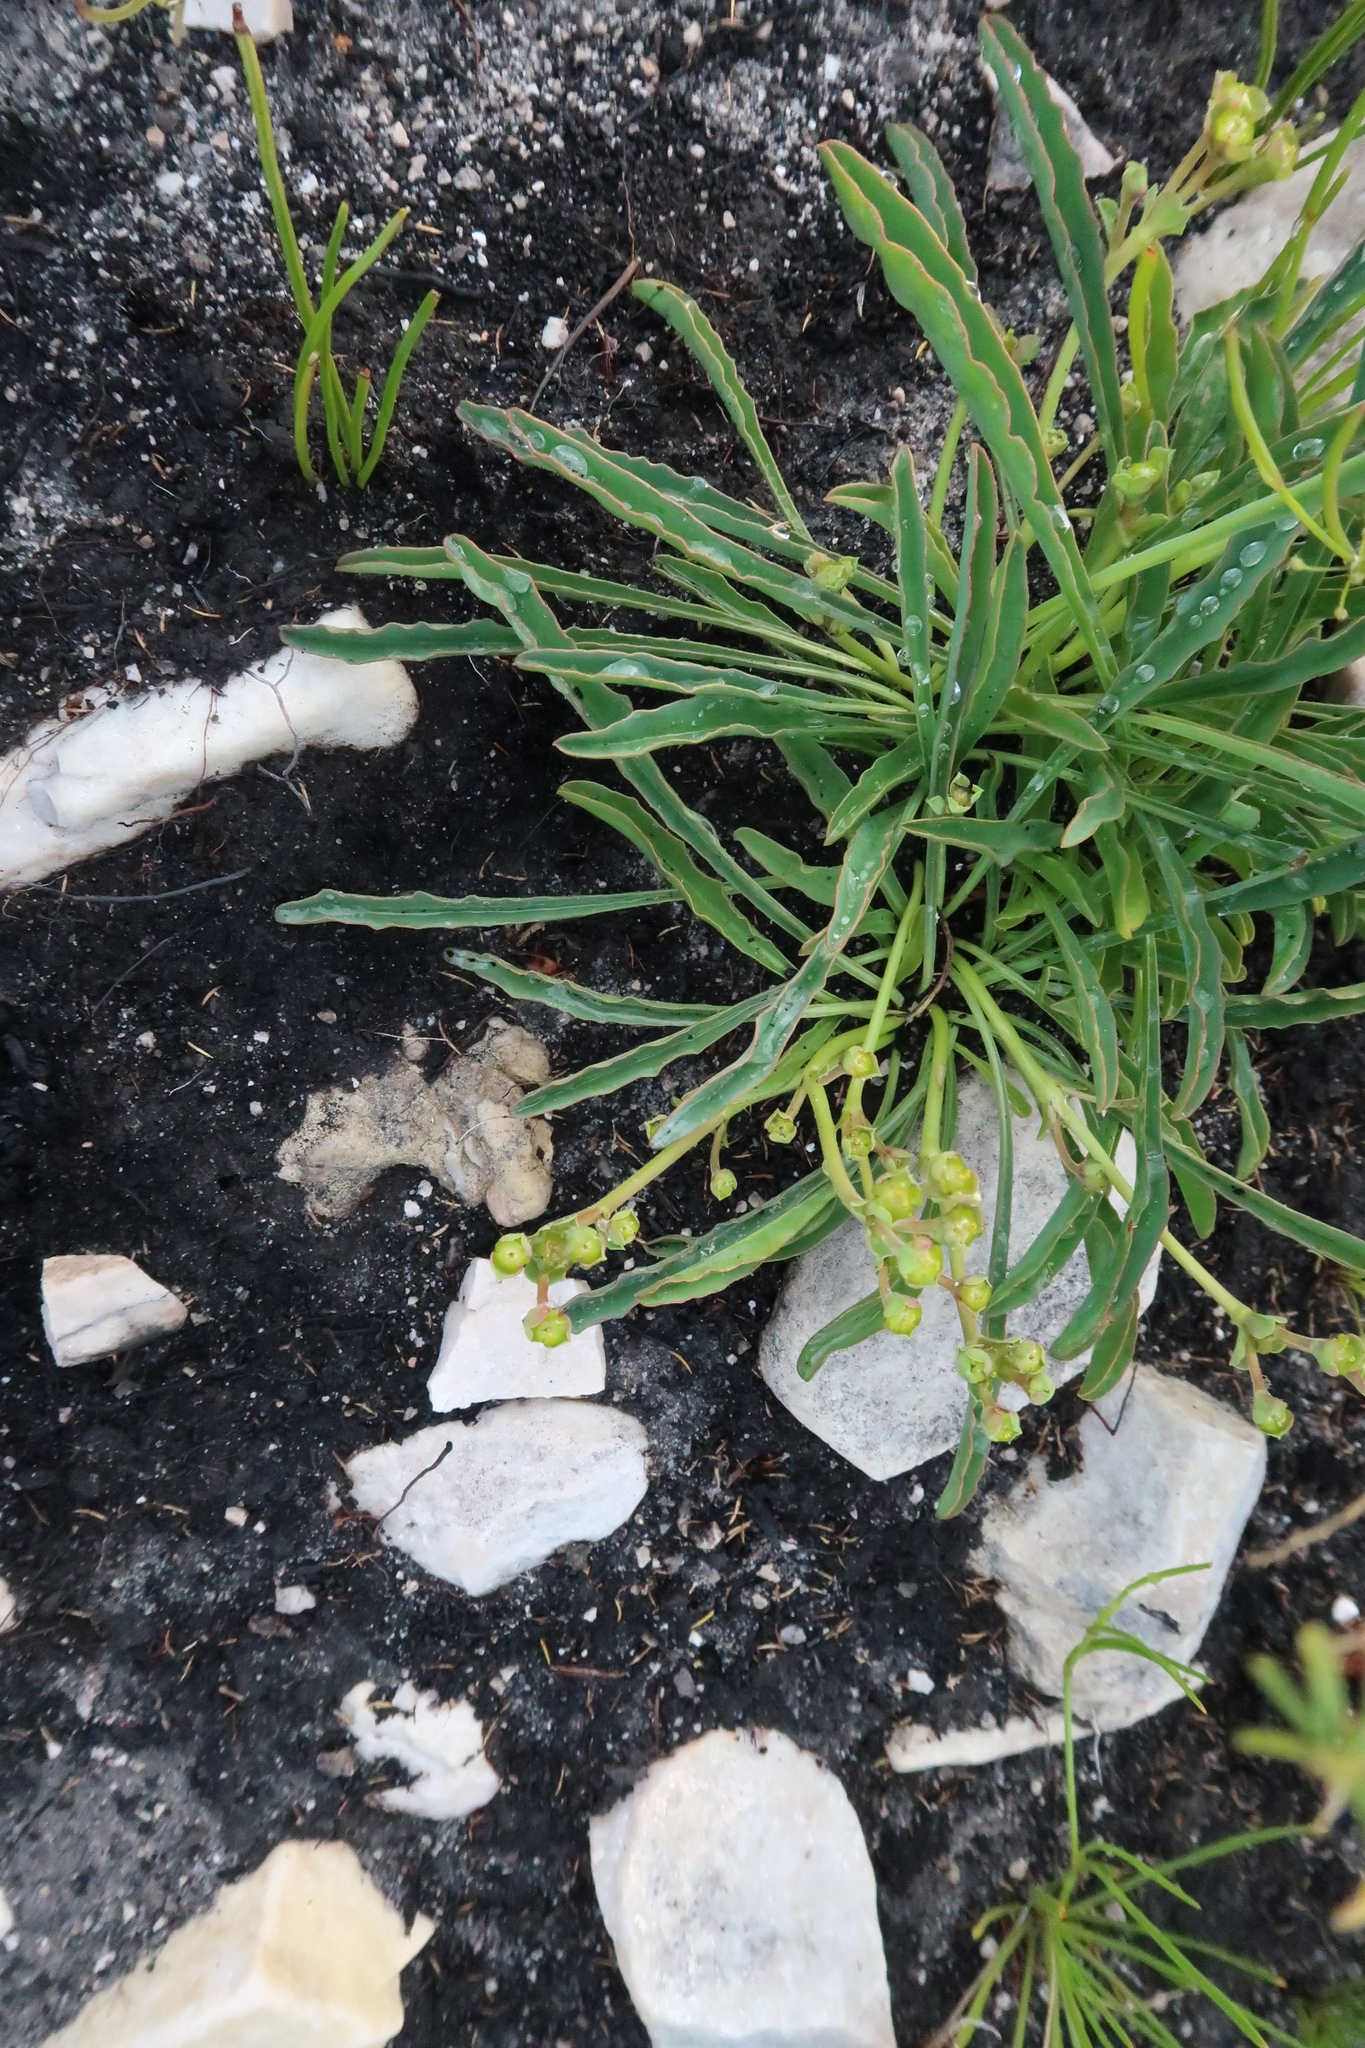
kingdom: Plantae
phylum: Tracheophyta
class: Magnoliopsida
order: Malpighiales
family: Euphorbiaceae
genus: Euphorbia
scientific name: Euphorbia silenifolia
